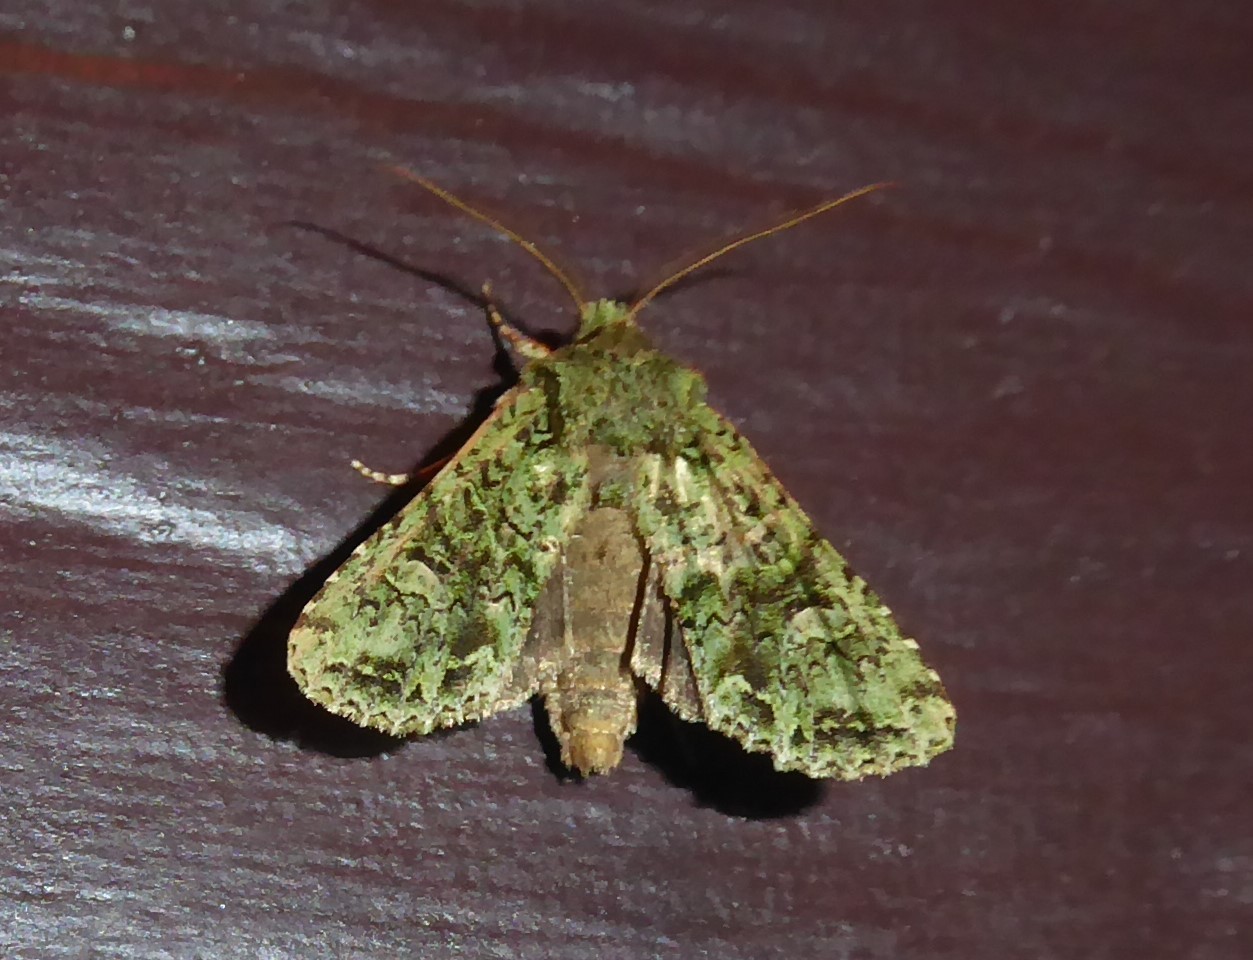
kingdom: Animalia
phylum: Arthropoda
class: Insecta
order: Lepidoptera
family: Noctuidae
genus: Ichneutica
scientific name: Ichneutica
